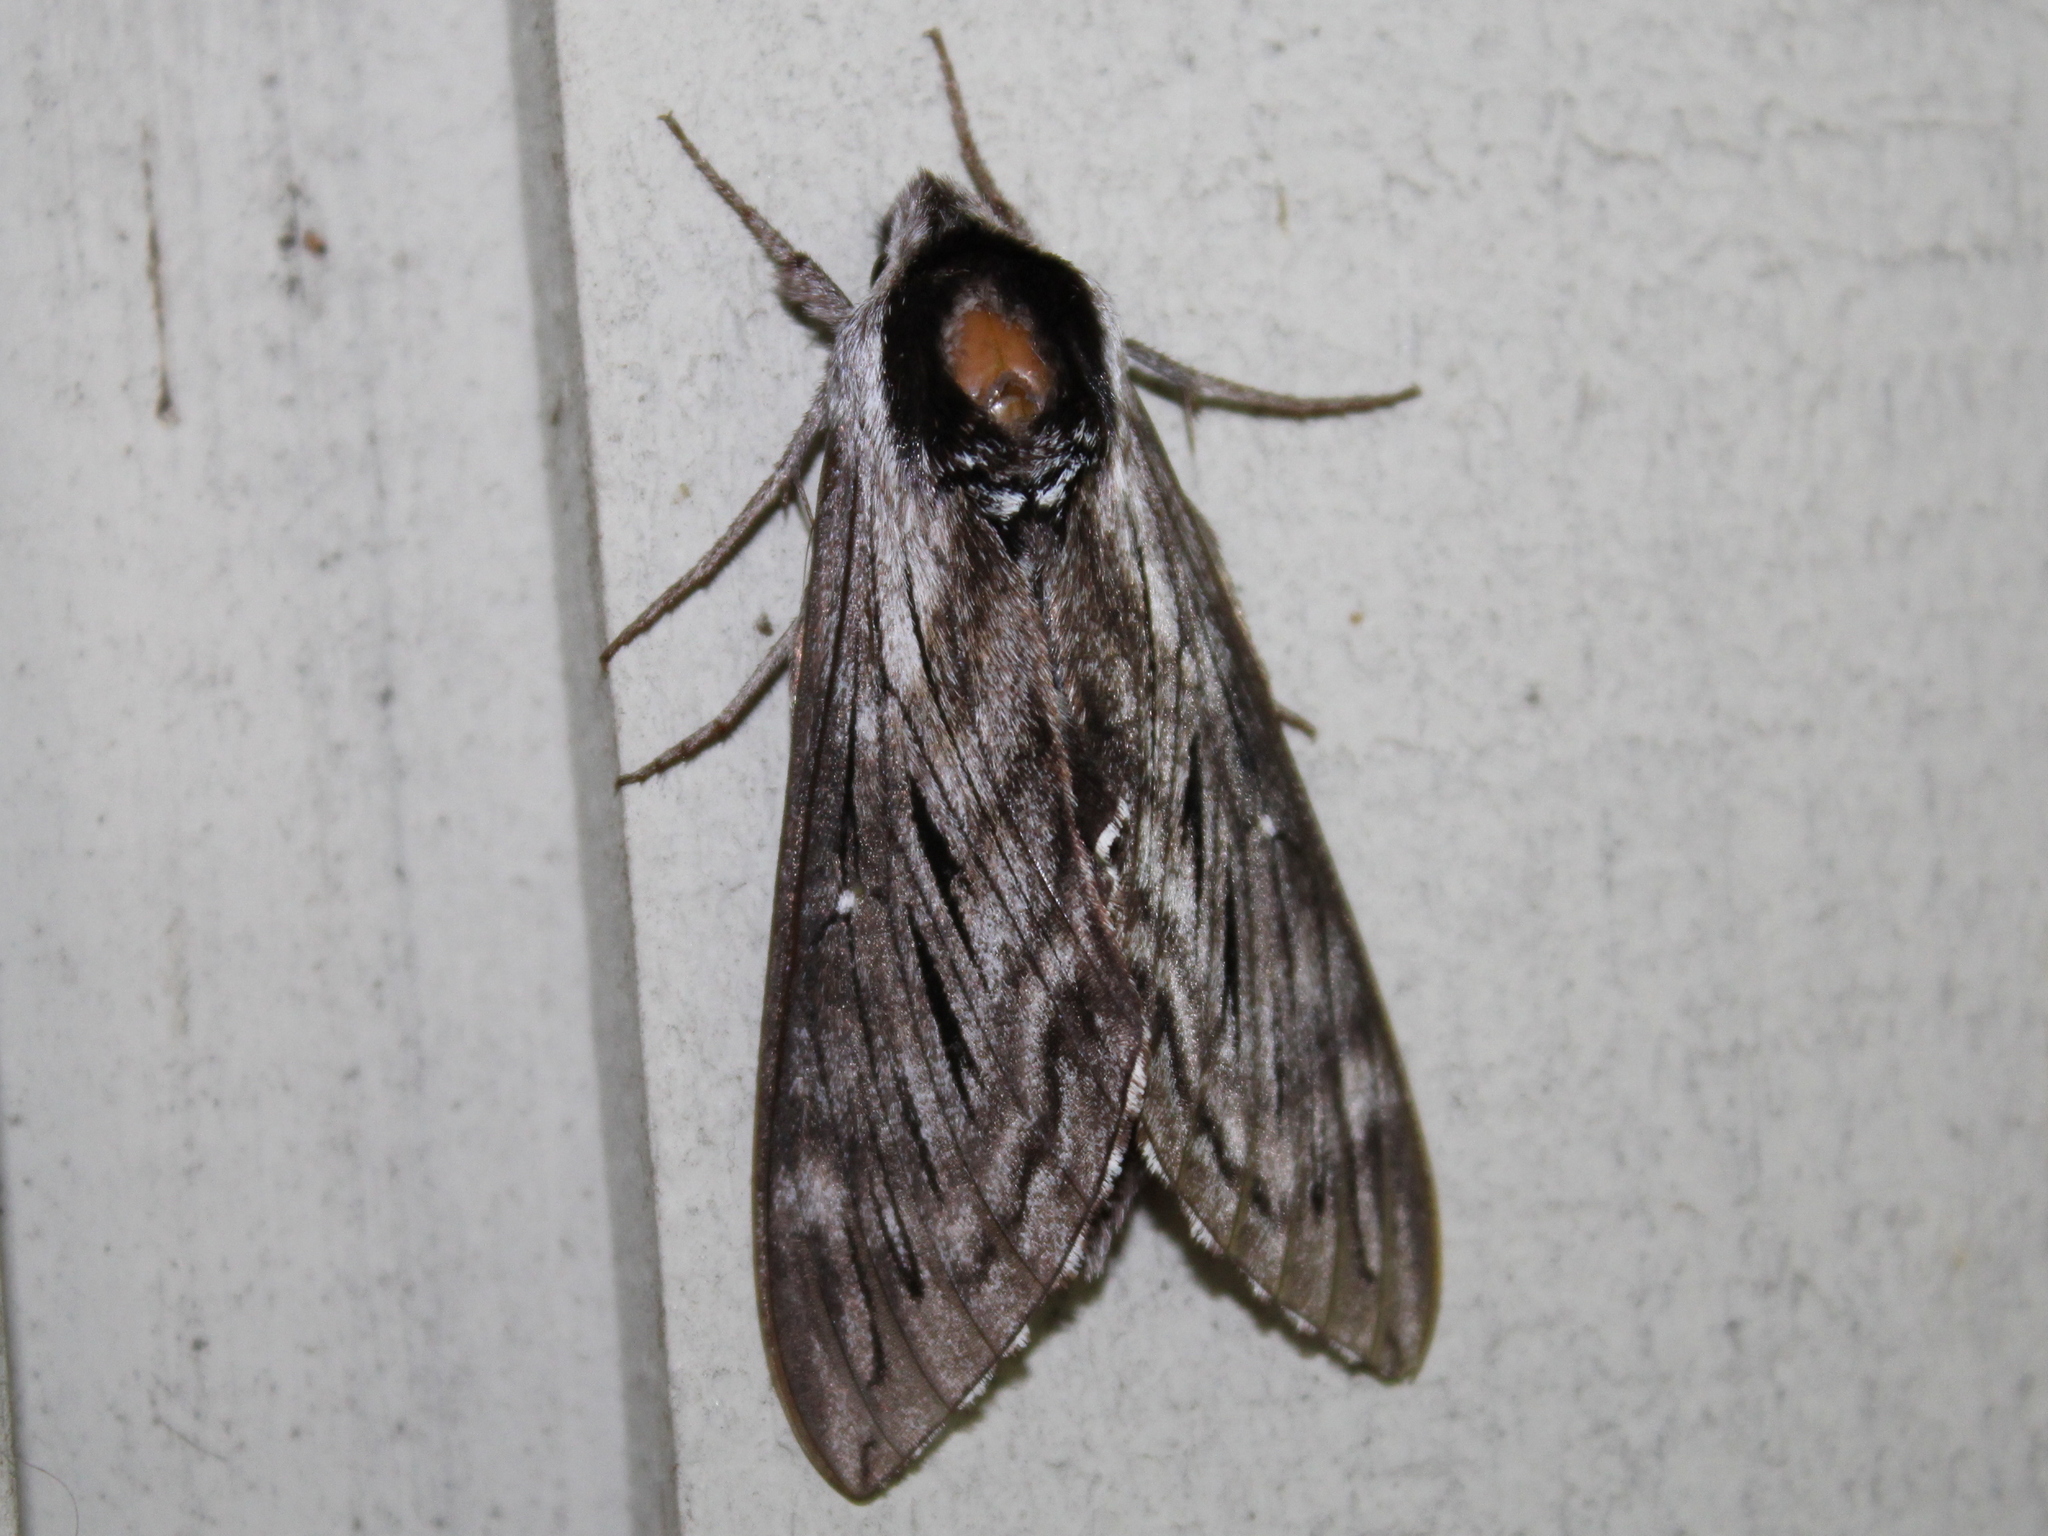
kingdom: Animalia
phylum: Arthropoda
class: Insecta
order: Lepidoptera
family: Sphingidae
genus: Sphinx
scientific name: Sphinx poecila
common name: Northern apple sphinx
